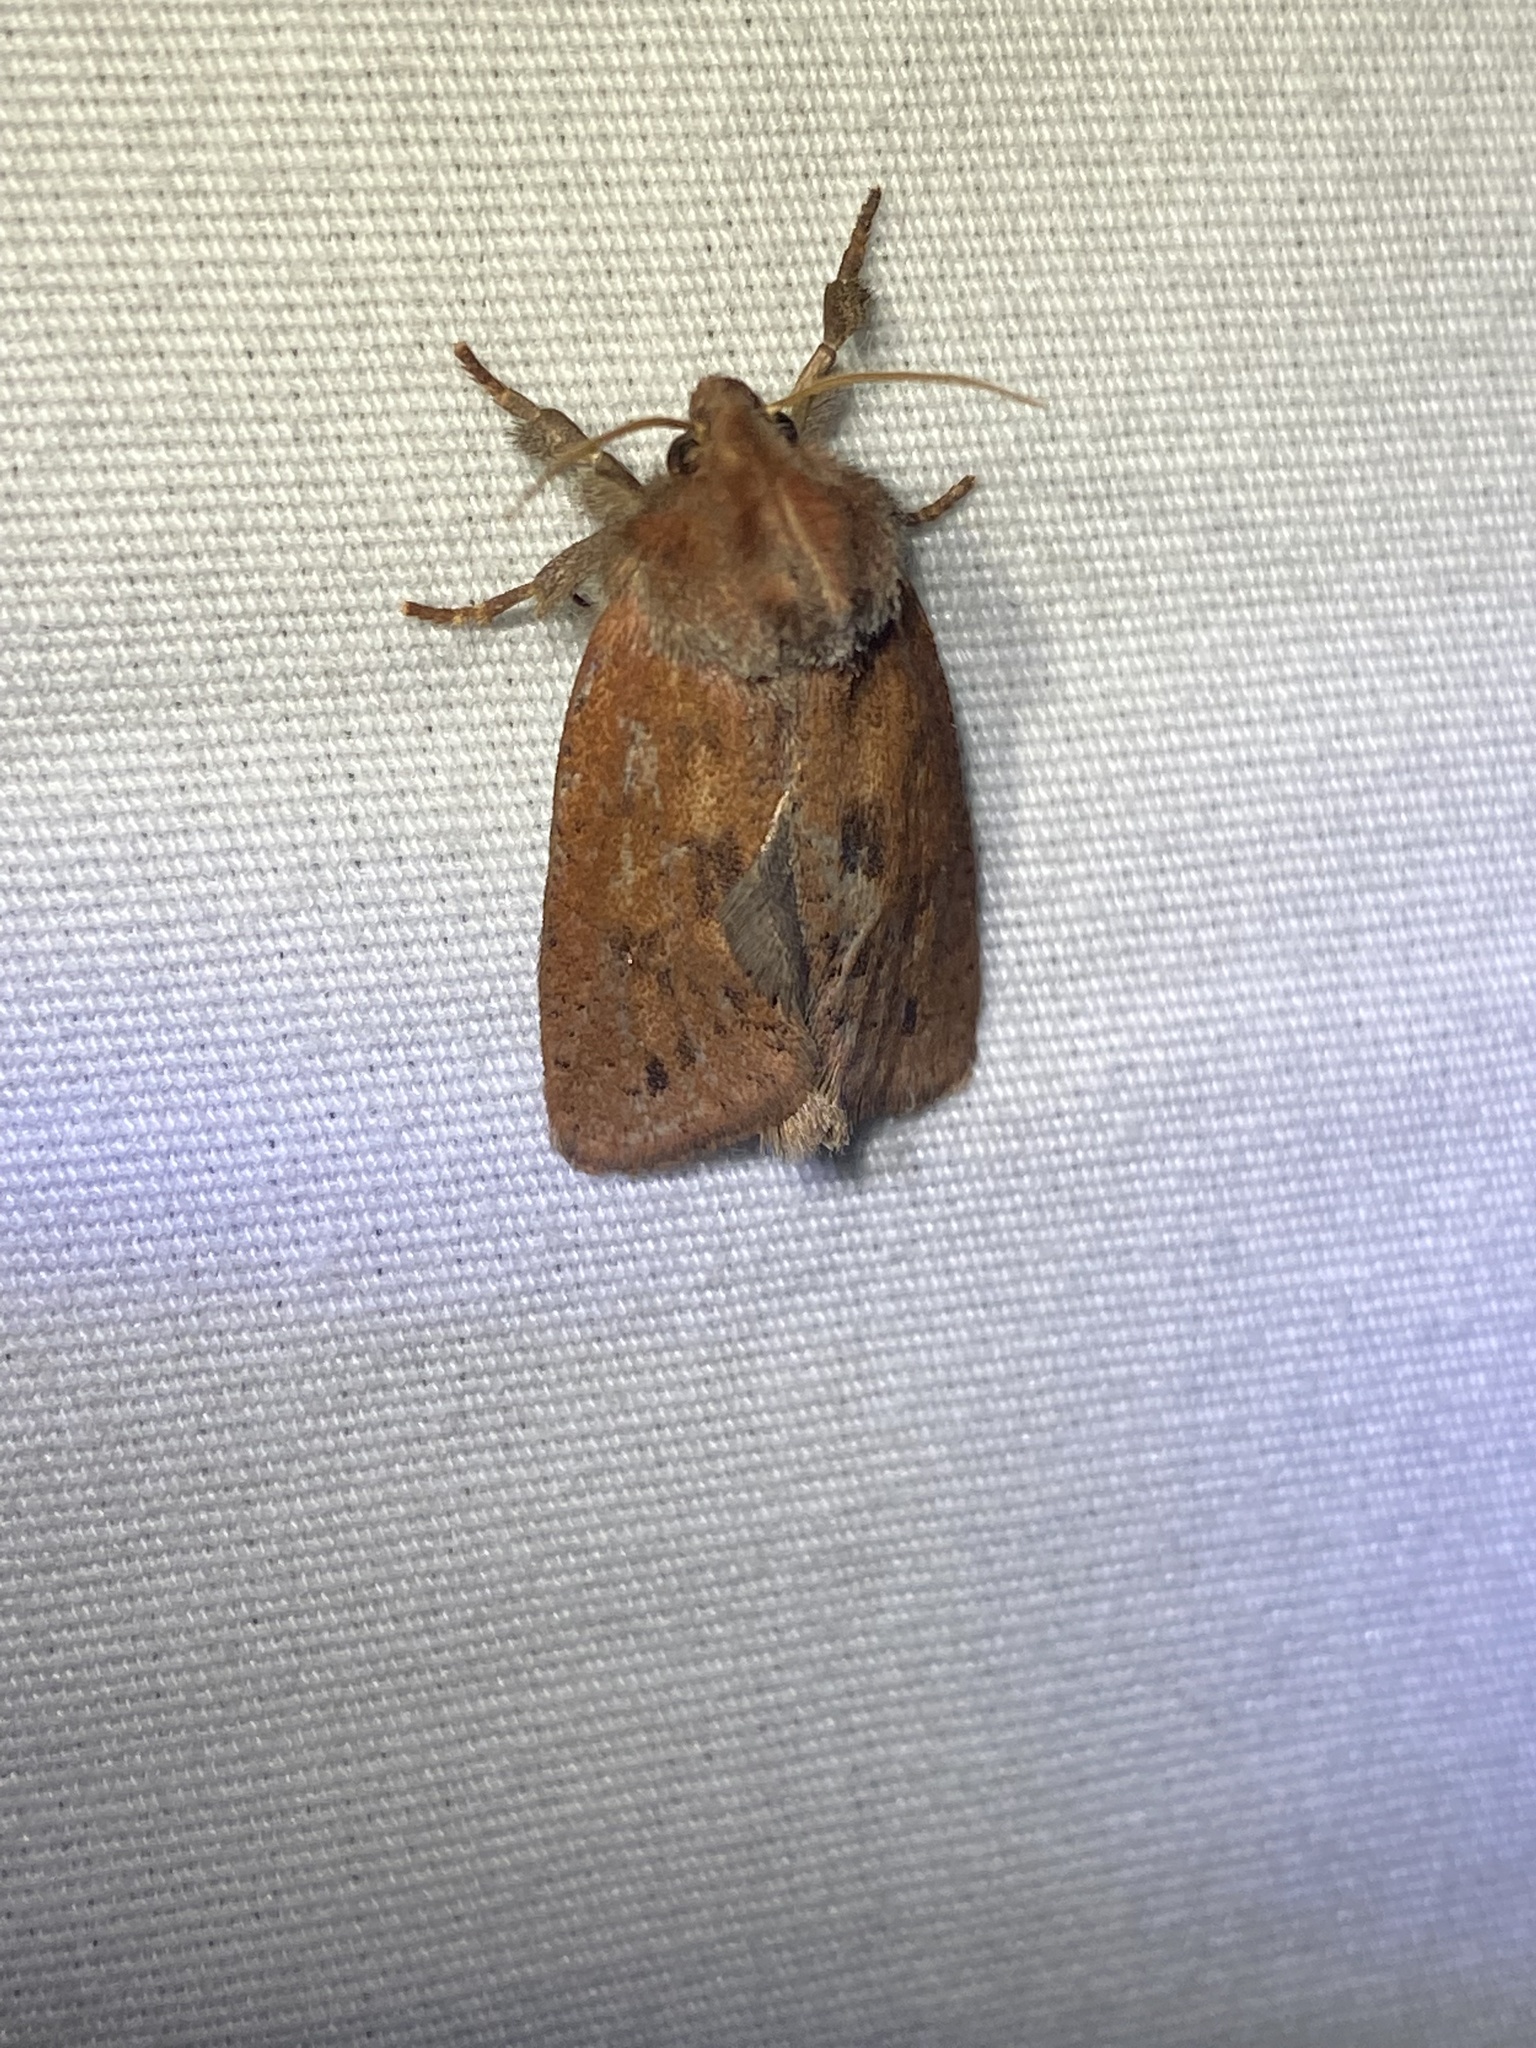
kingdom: Animalia
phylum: Arthropoda
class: Insecta
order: Lepidoptera
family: Tineidae
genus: Acrolophus
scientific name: Acrolophus plumifrontella
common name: Eastern grass tubeworm moth
